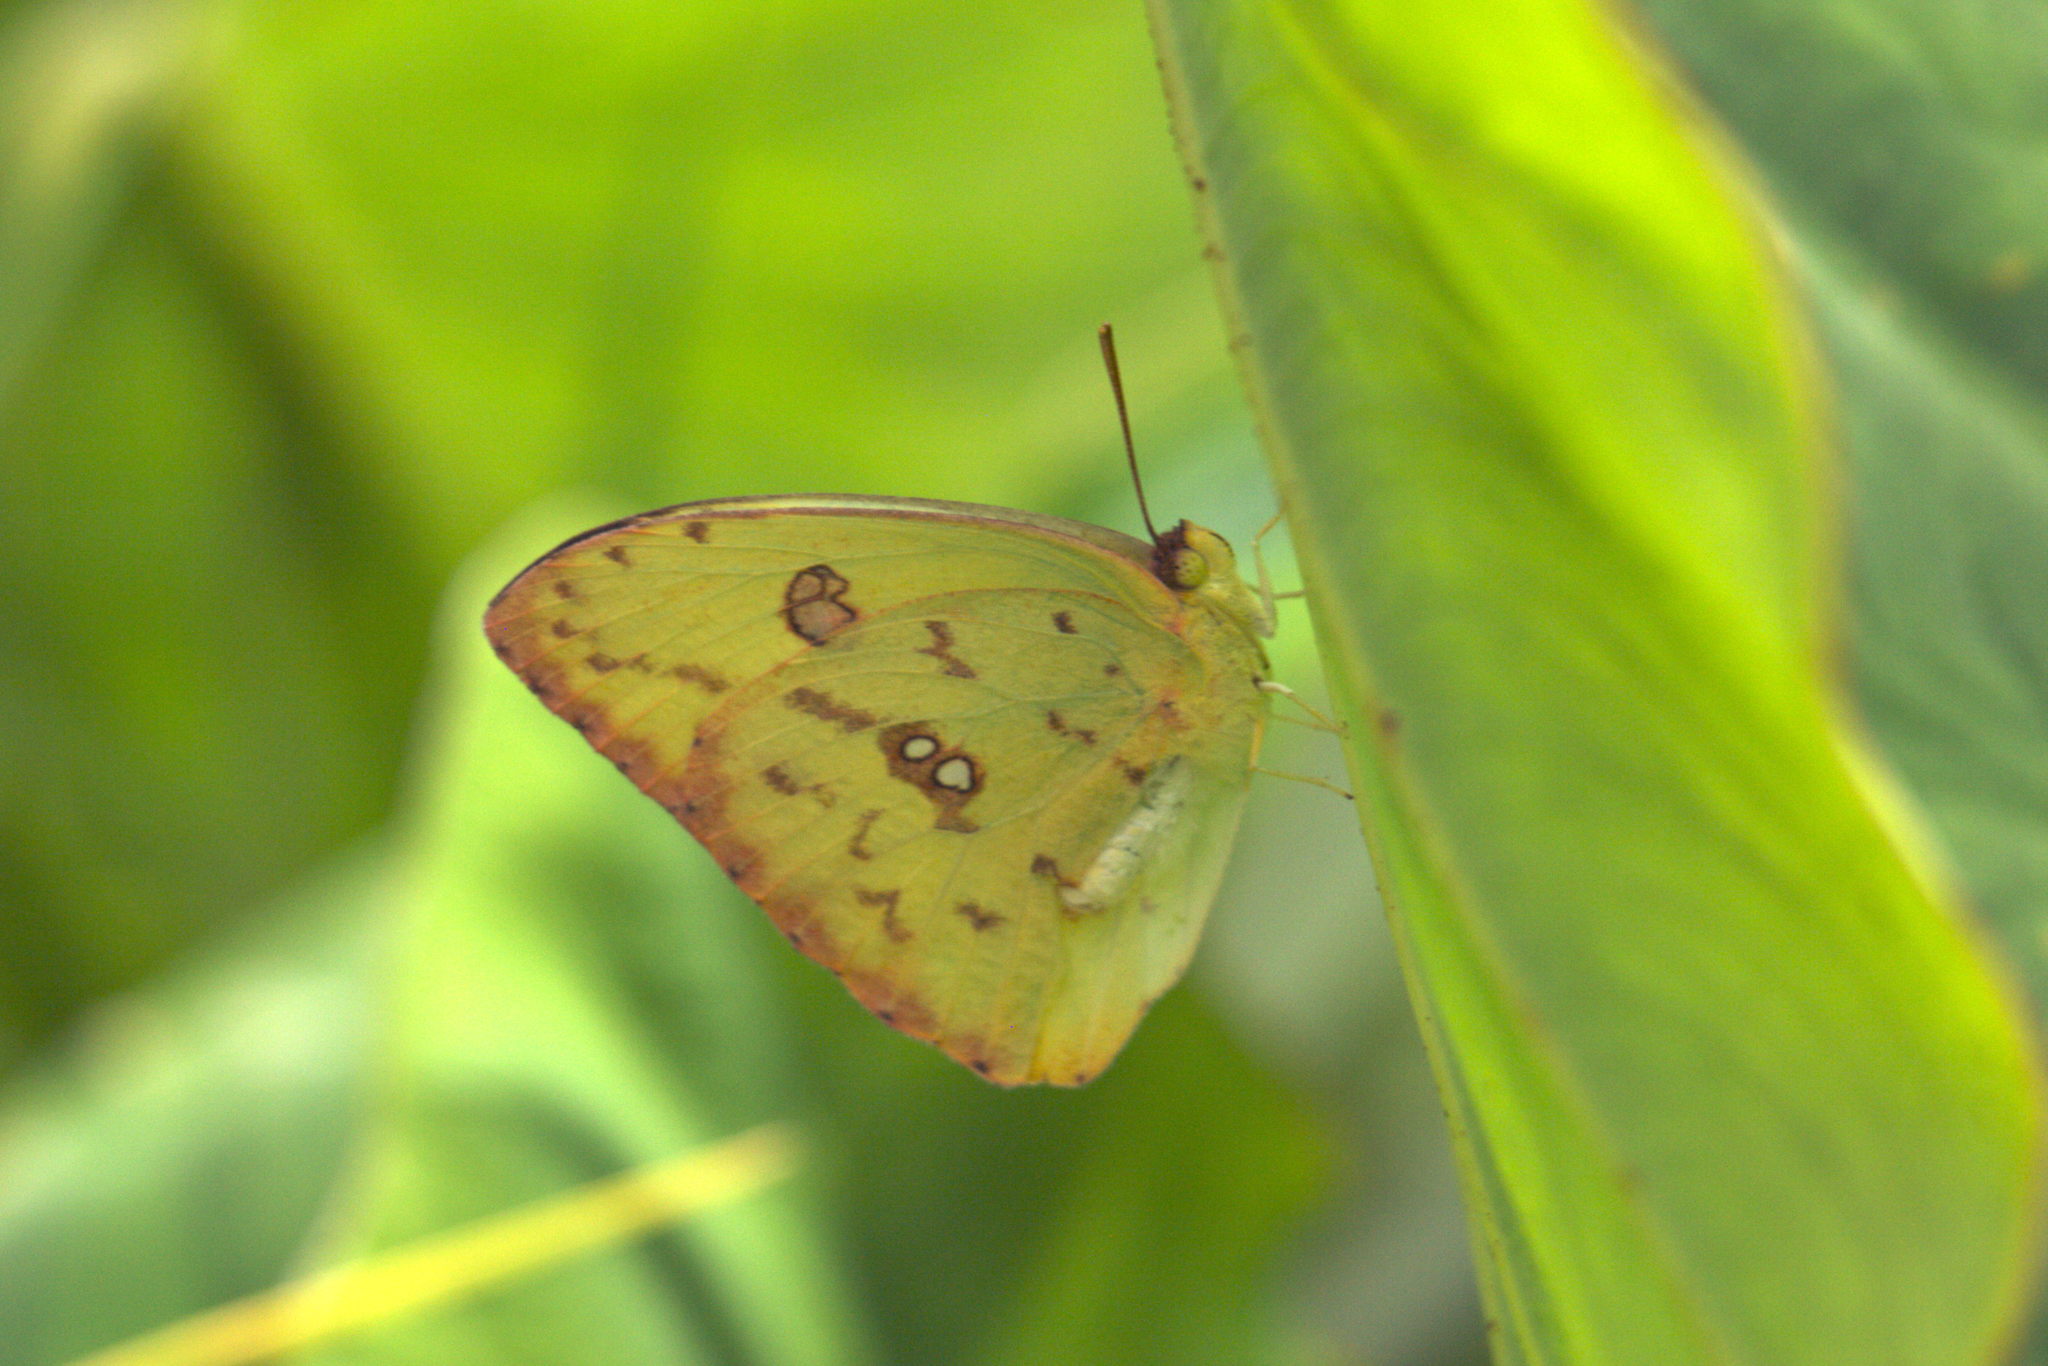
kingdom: Animalia
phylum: Arthropoda
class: Insecta
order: Lepidoptera
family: Pieridae
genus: Phoebis
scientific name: Phoebis sennae
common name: Cloudless sulphur
